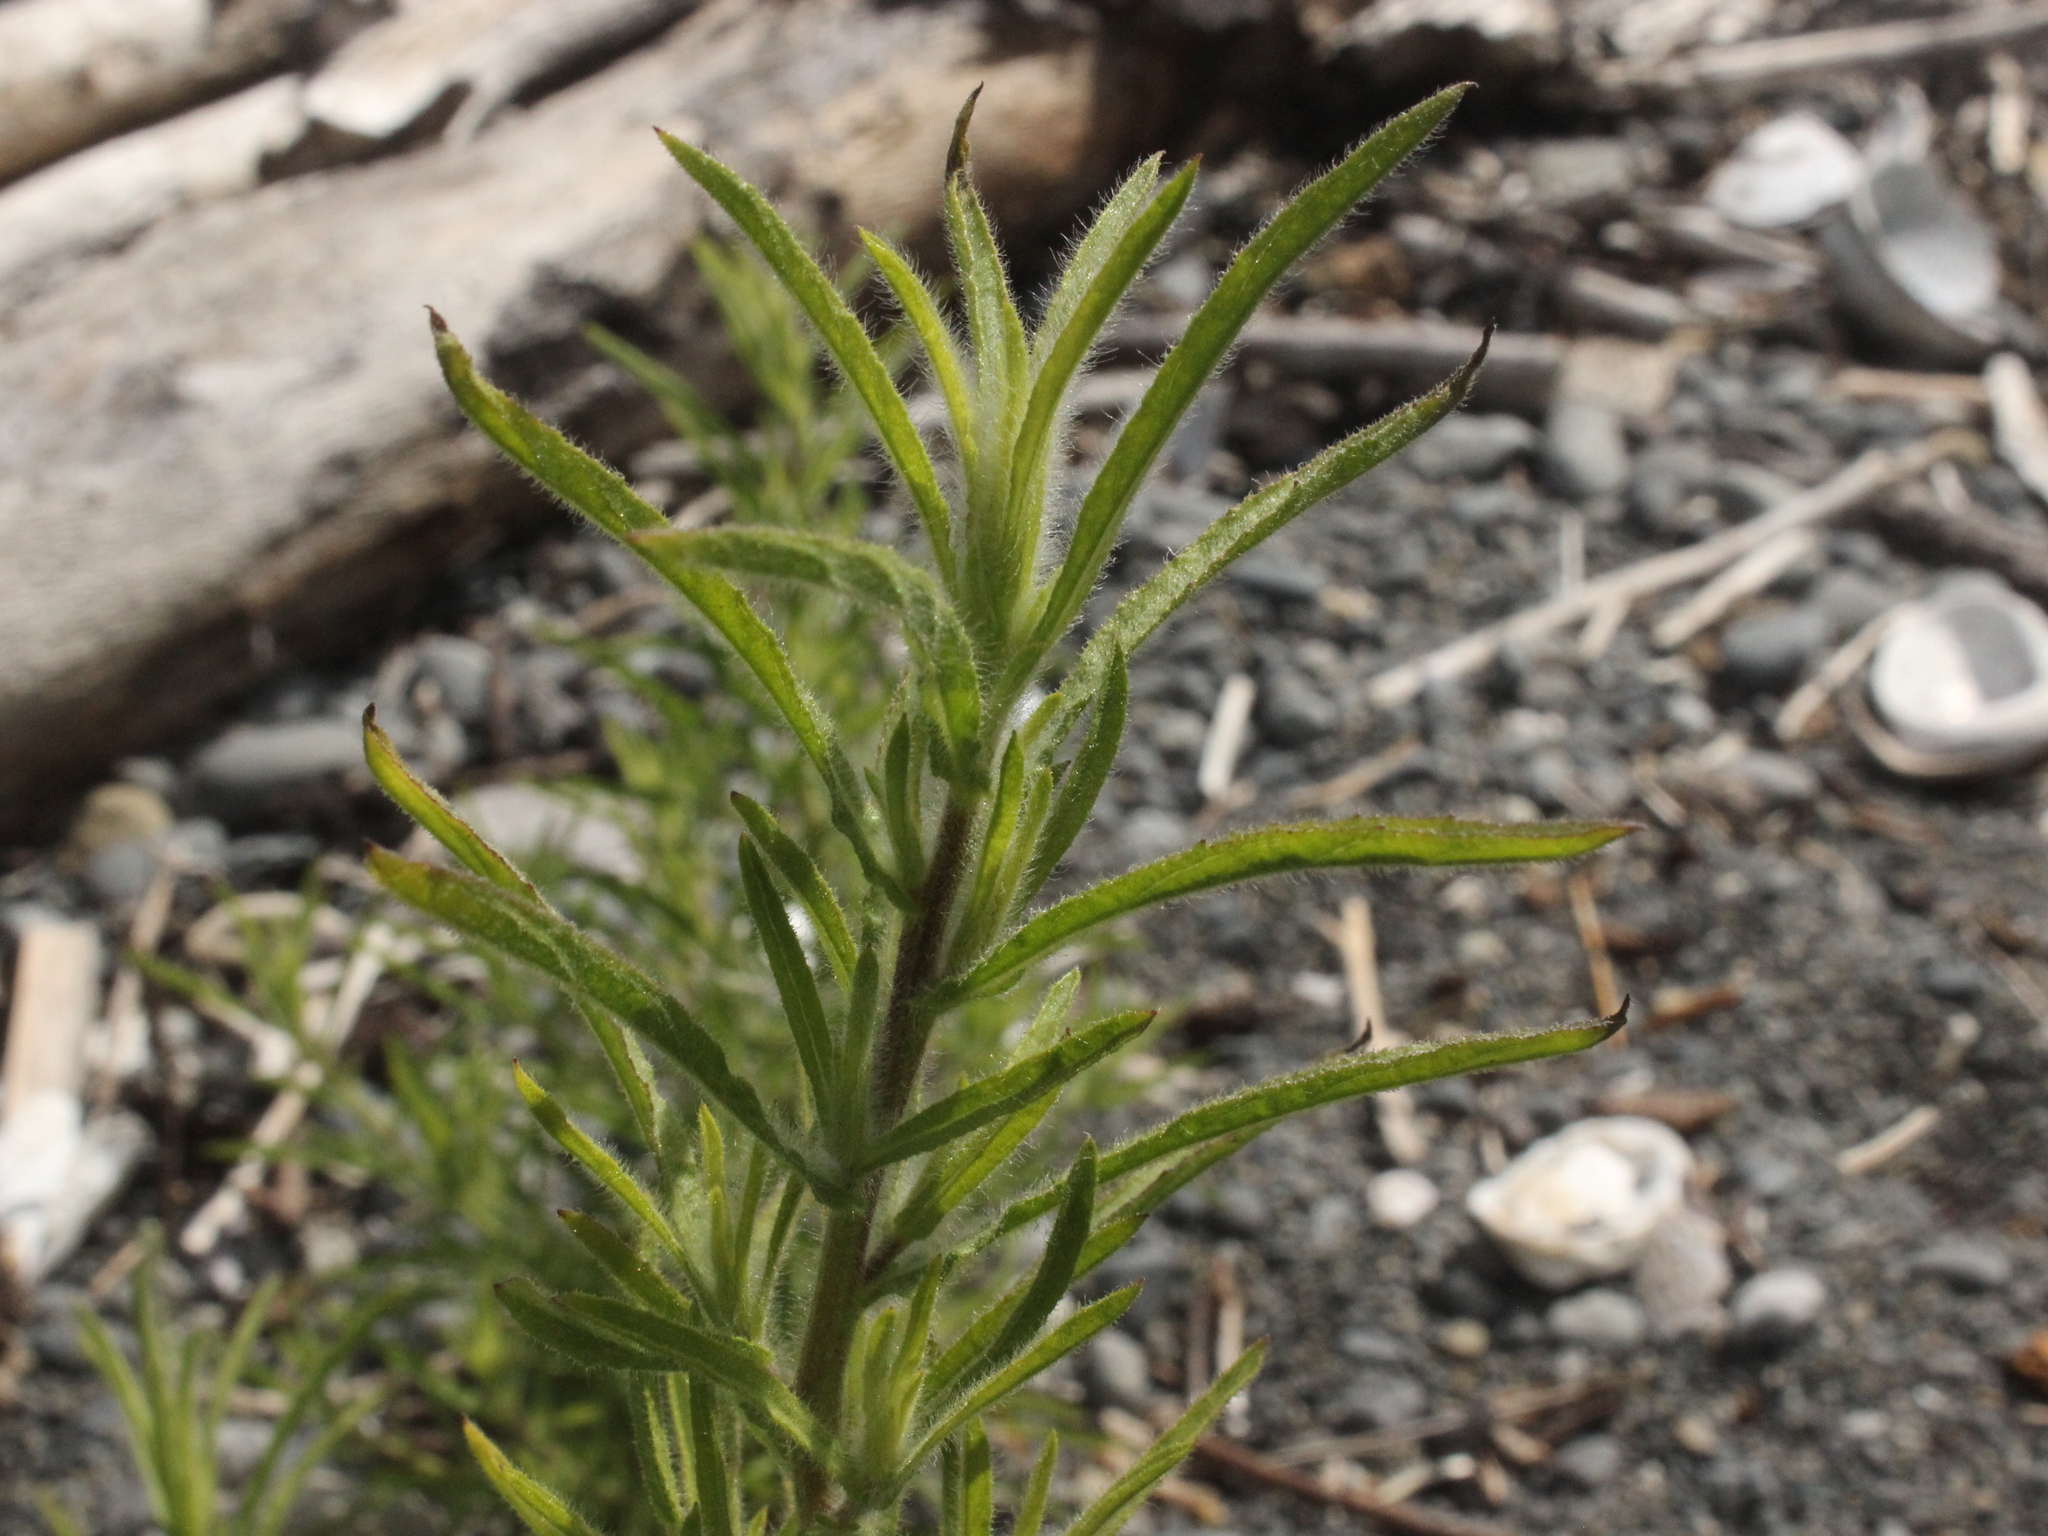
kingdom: Plantae
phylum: Tracheophyta
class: Magnoliopsida
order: Asterales
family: Asteraceae
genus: Dittrichia
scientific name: Dittrichia graveolens
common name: Stinking fleabane
